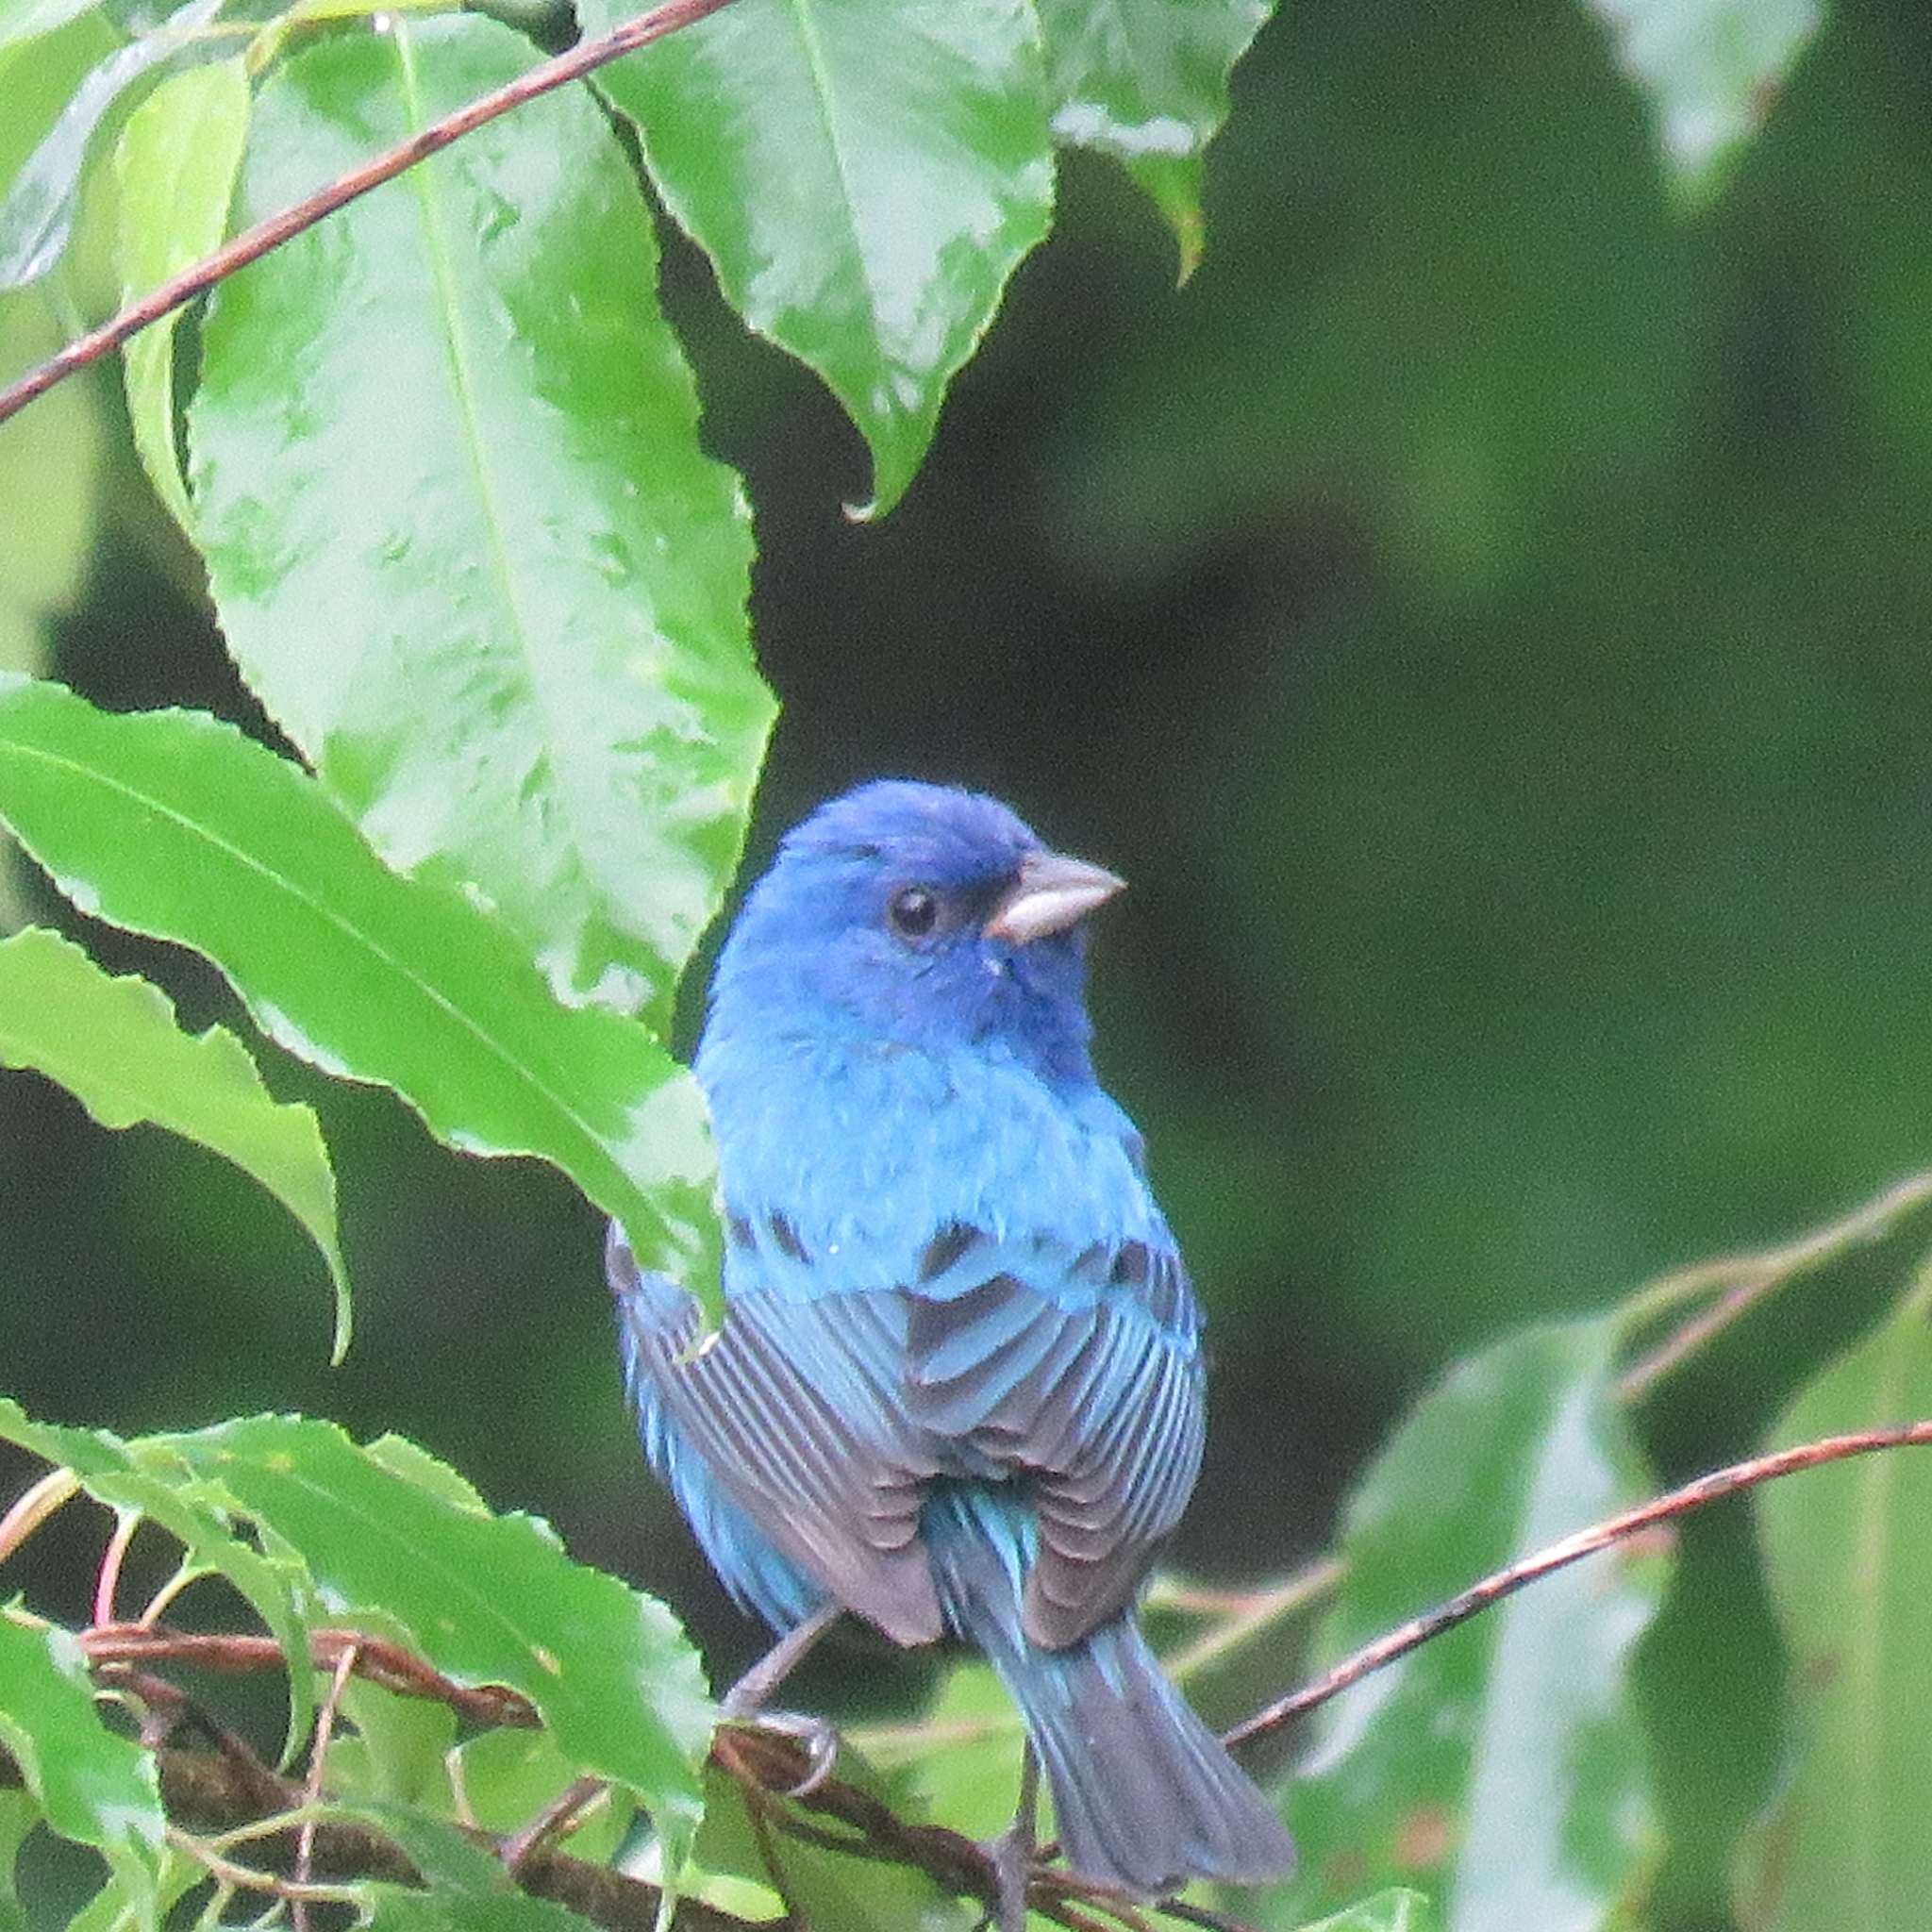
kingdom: Animalia
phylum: Chordata
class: Aves
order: Passeriformes
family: Cardinalidae
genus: Passerina
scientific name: Passerina cyanea
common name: Indigo bunting
